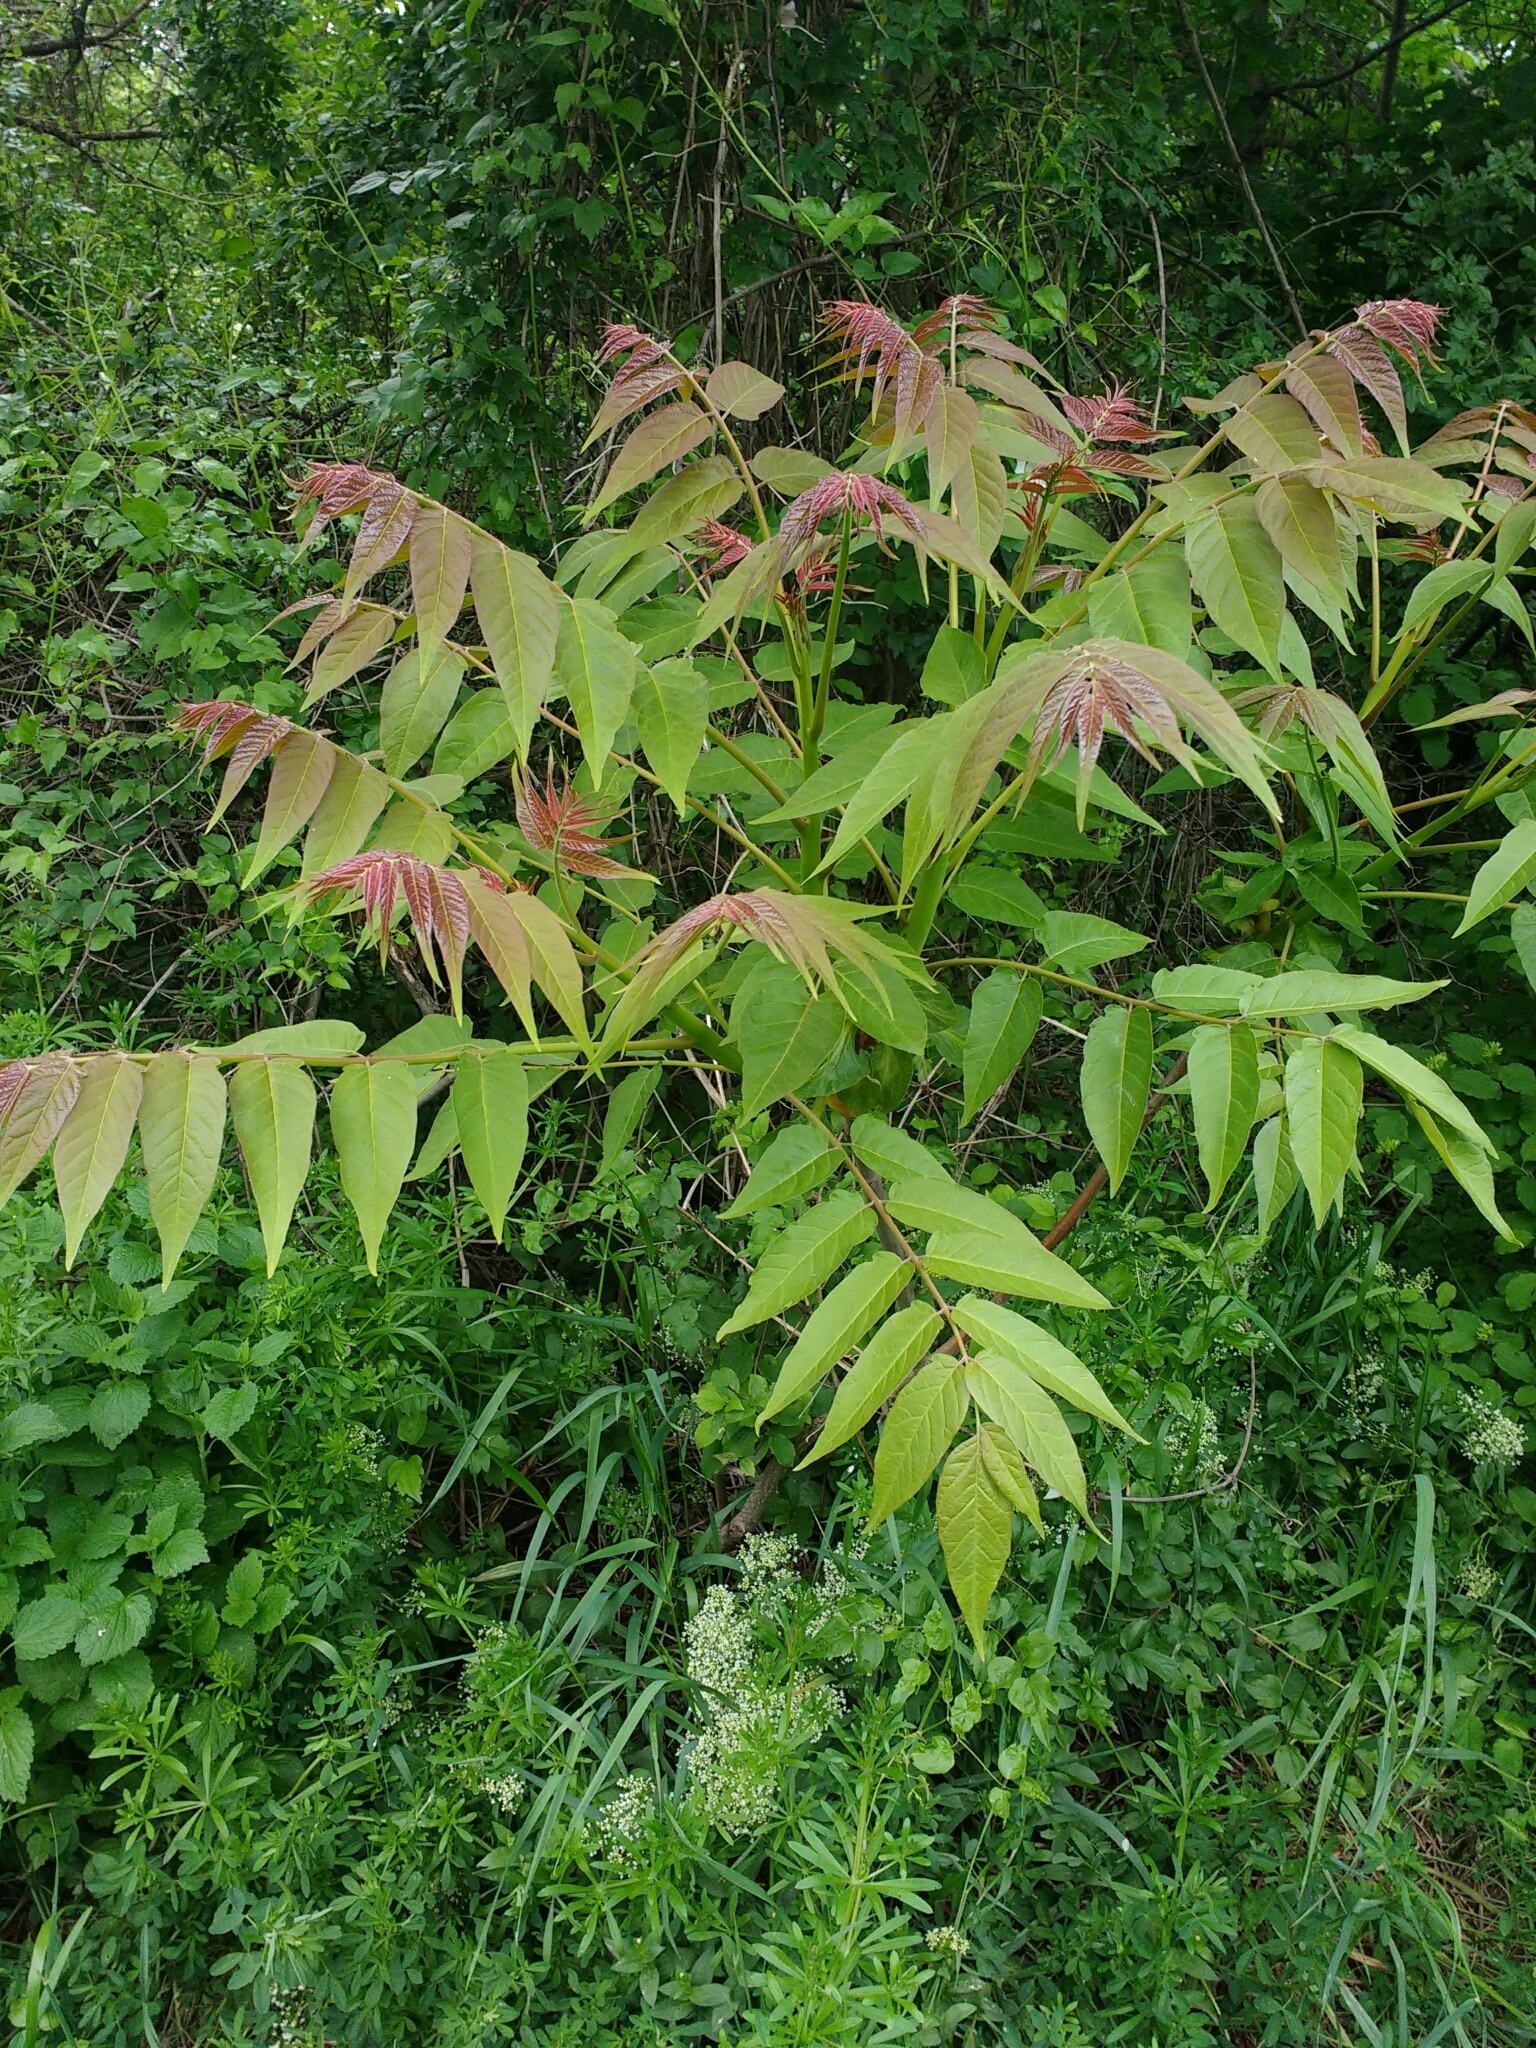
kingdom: Plantae
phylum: Tracheophyta
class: Magnoliopsida
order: Sapindales
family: Simaroubaceae
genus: Ailanthus
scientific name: Ailanthus altissima
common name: Tree-of-heaven
